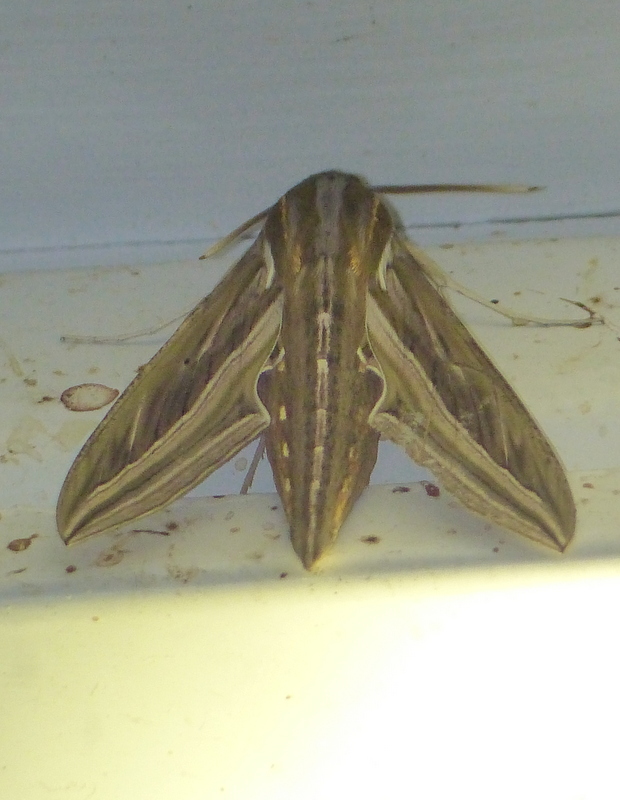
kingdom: Animalia
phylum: Arthropoda
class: Insecta
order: Lepidoptera
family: Sphingidae
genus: Hippotion
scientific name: Hippotion celerio
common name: Silver-striped hawk-moth
